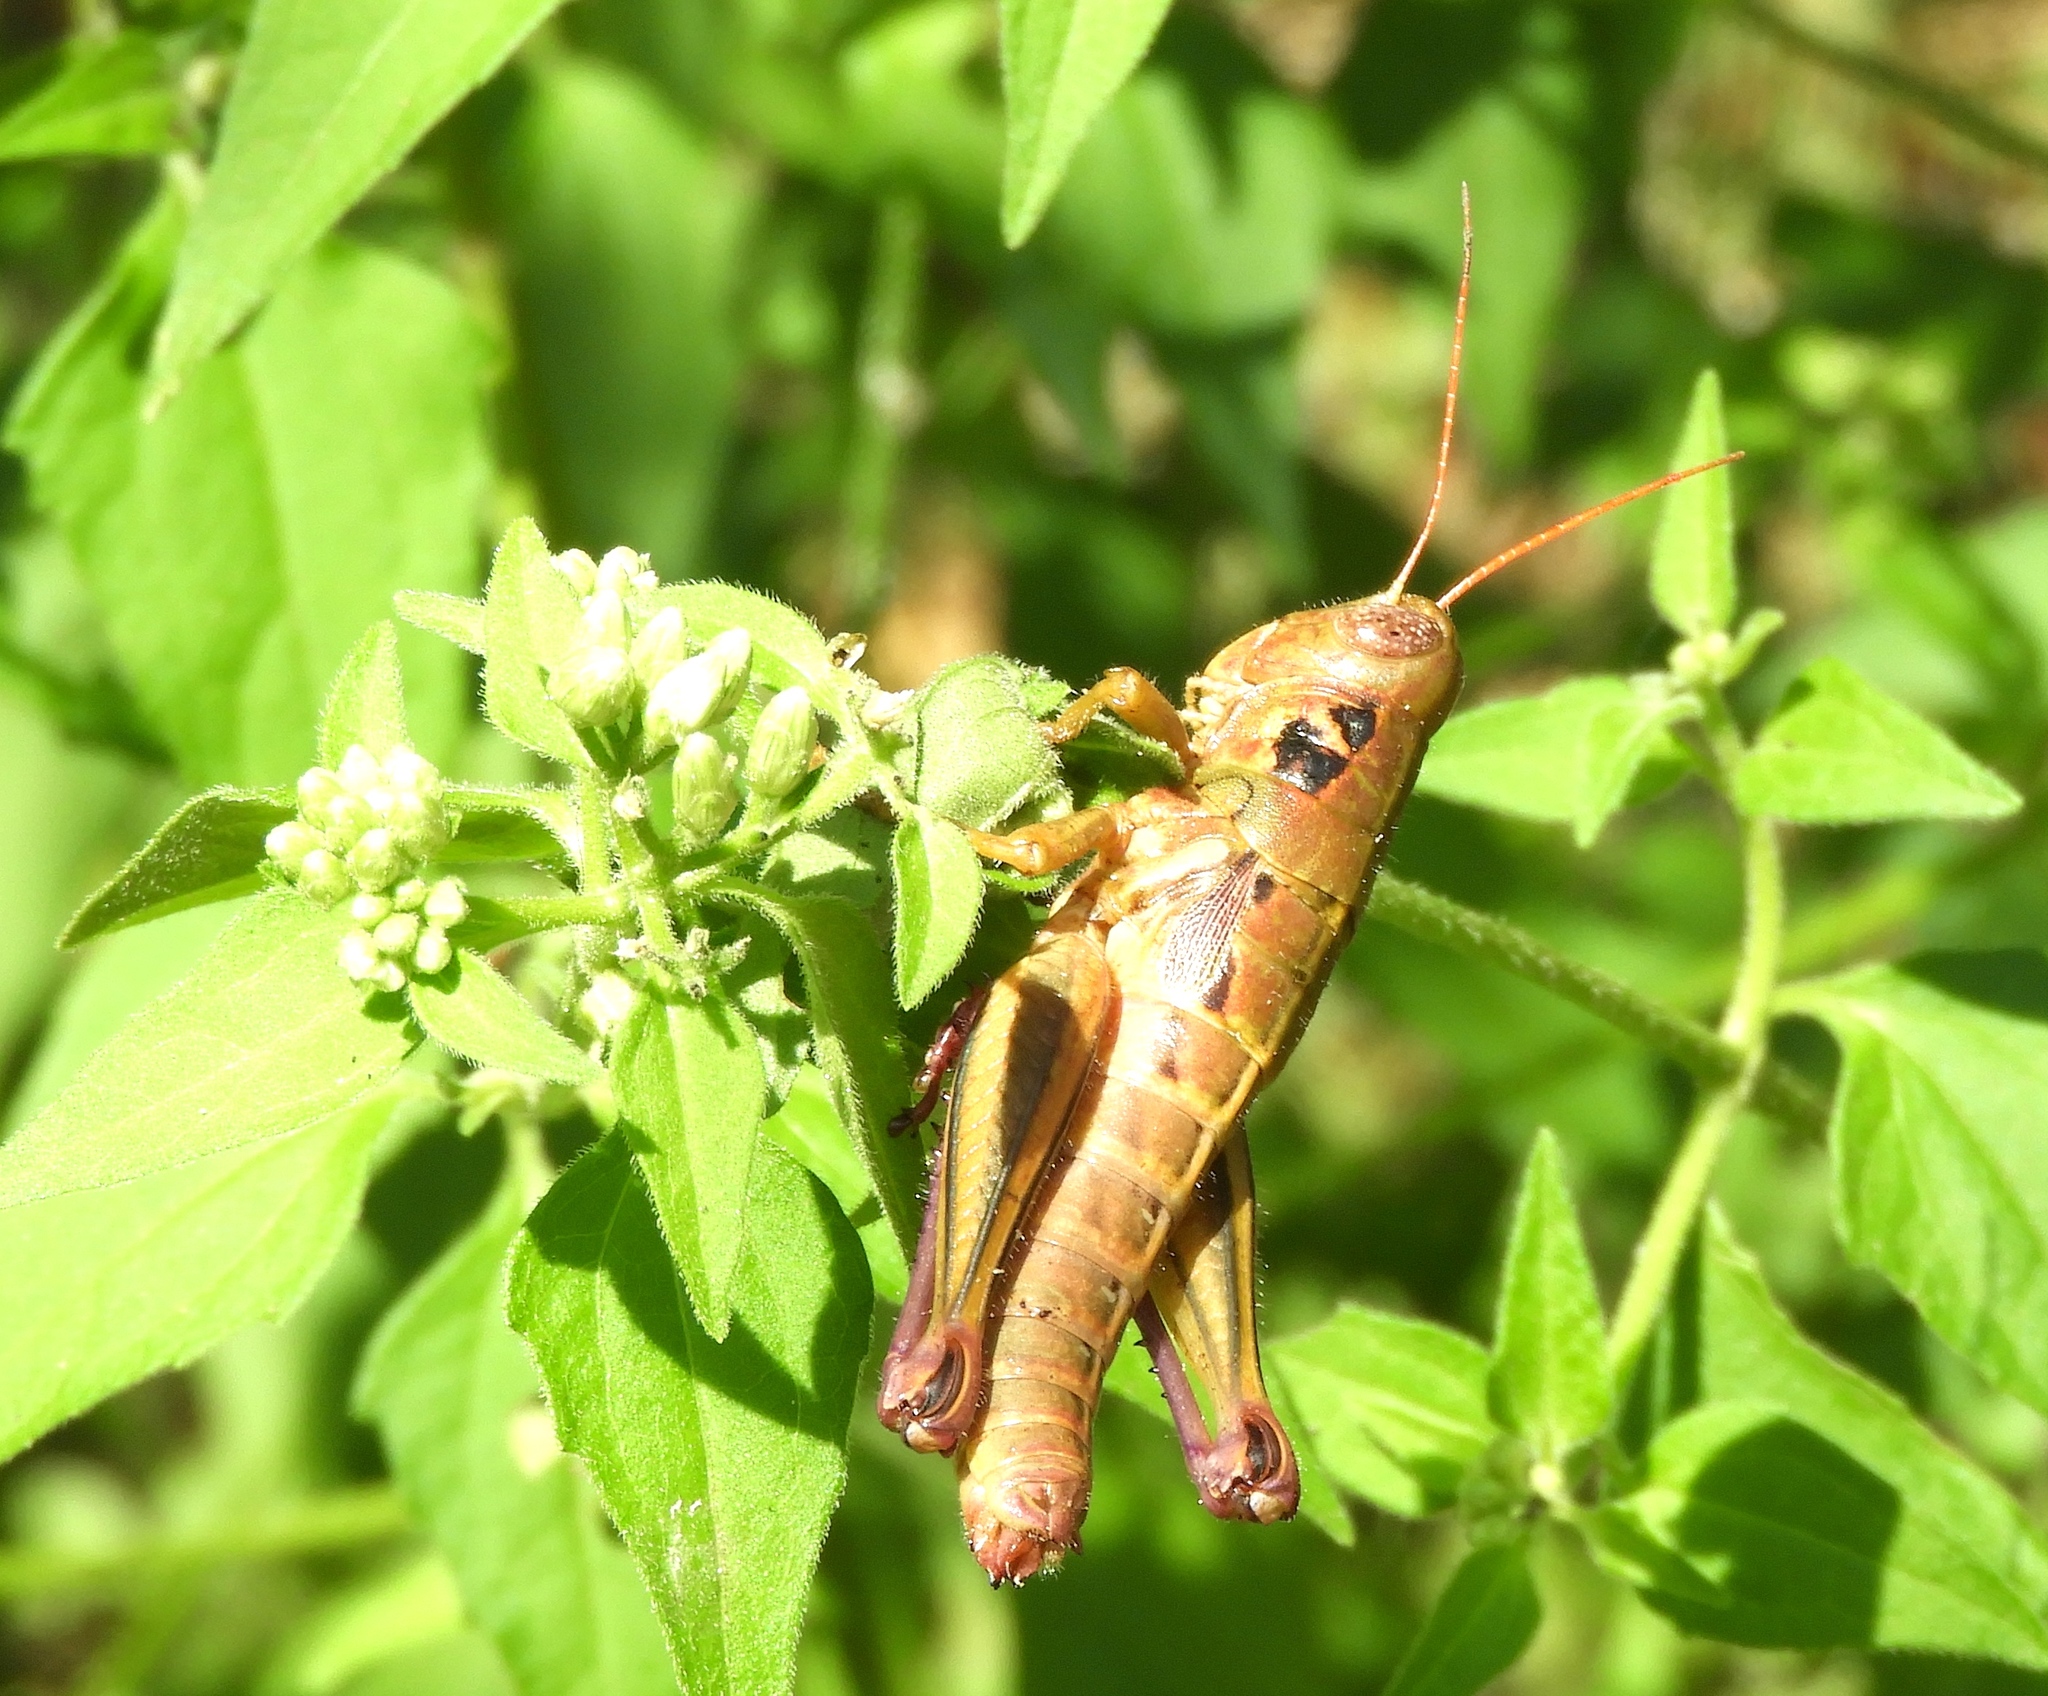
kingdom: Animalia
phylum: Arthropoda
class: Insecta
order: Orthoptera
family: Acrididae
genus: Barytettix
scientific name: Barytettix
